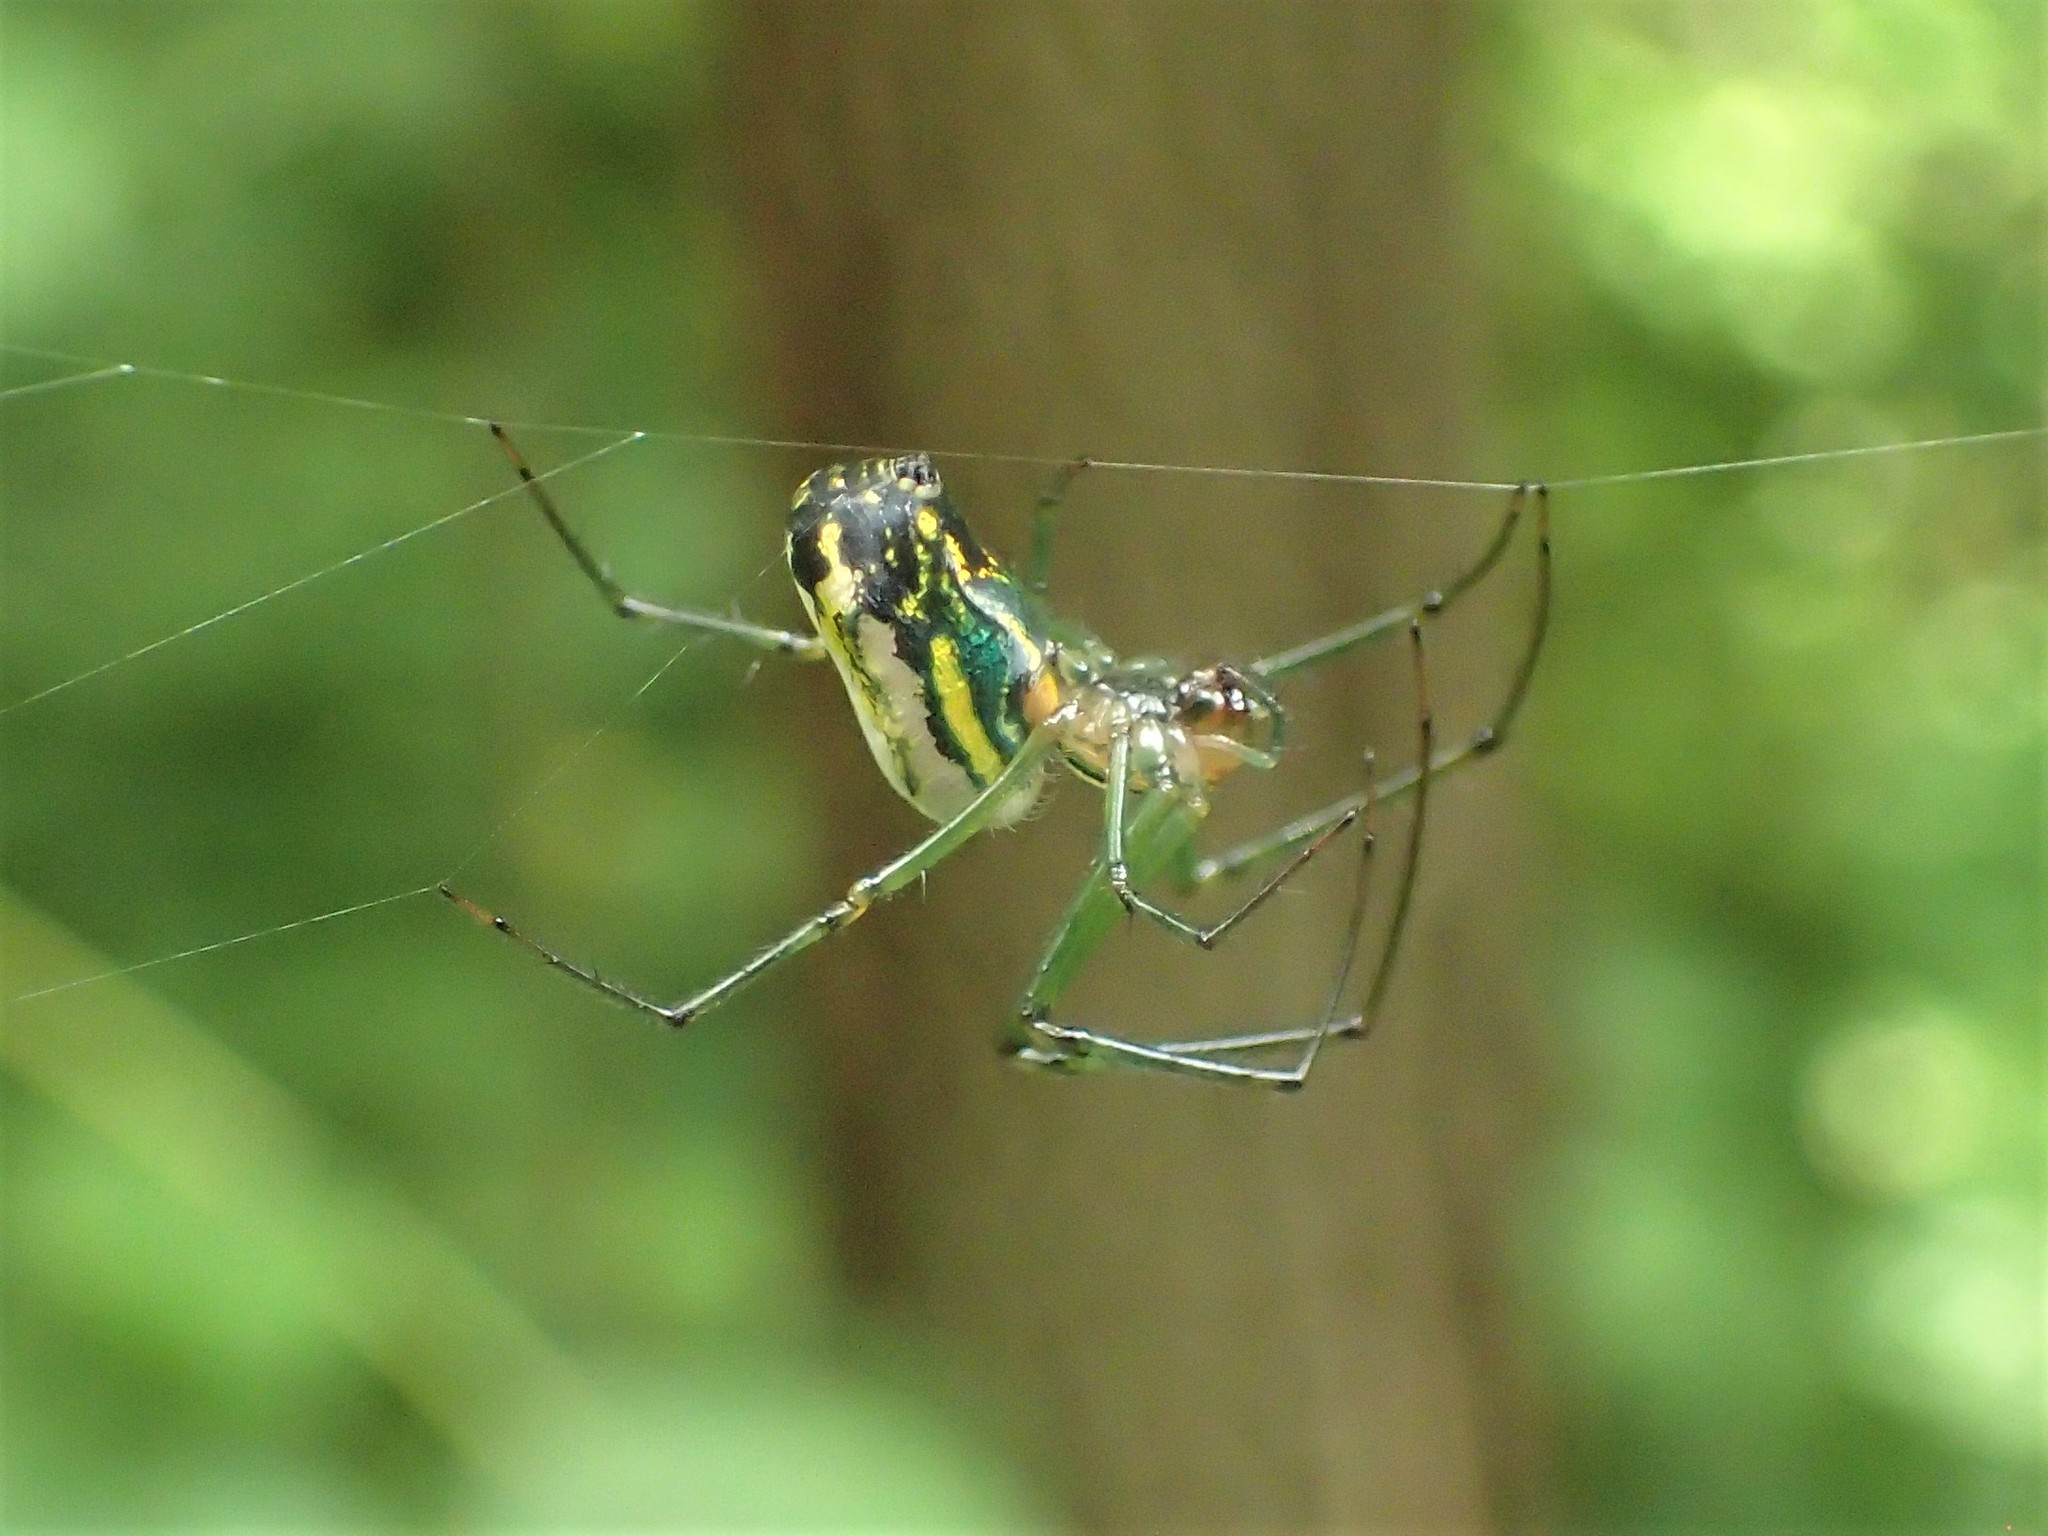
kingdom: Animalia
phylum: Arthropoda
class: Arachnida
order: Araneae
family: Tetragnathidae
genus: Leucauge
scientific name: Leucauge venusta
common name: Longjawed orb weavers
